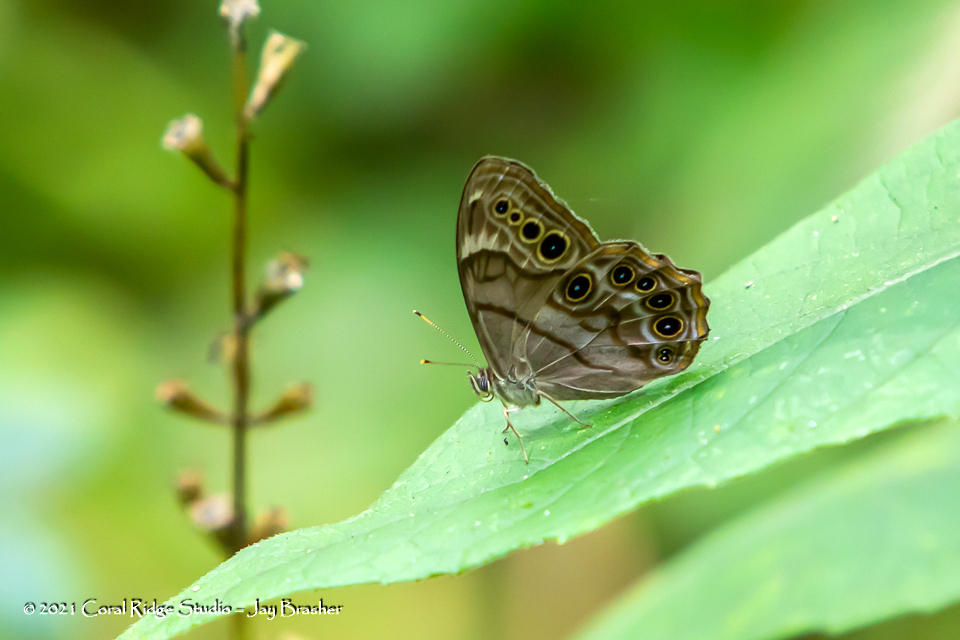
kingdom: Animalia
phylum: Arthropoda
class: Insecta
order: Lepidoptera
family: Nymphalidae
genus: Lethe
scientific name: Lethe anthedon
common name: Northern pearly-eye
